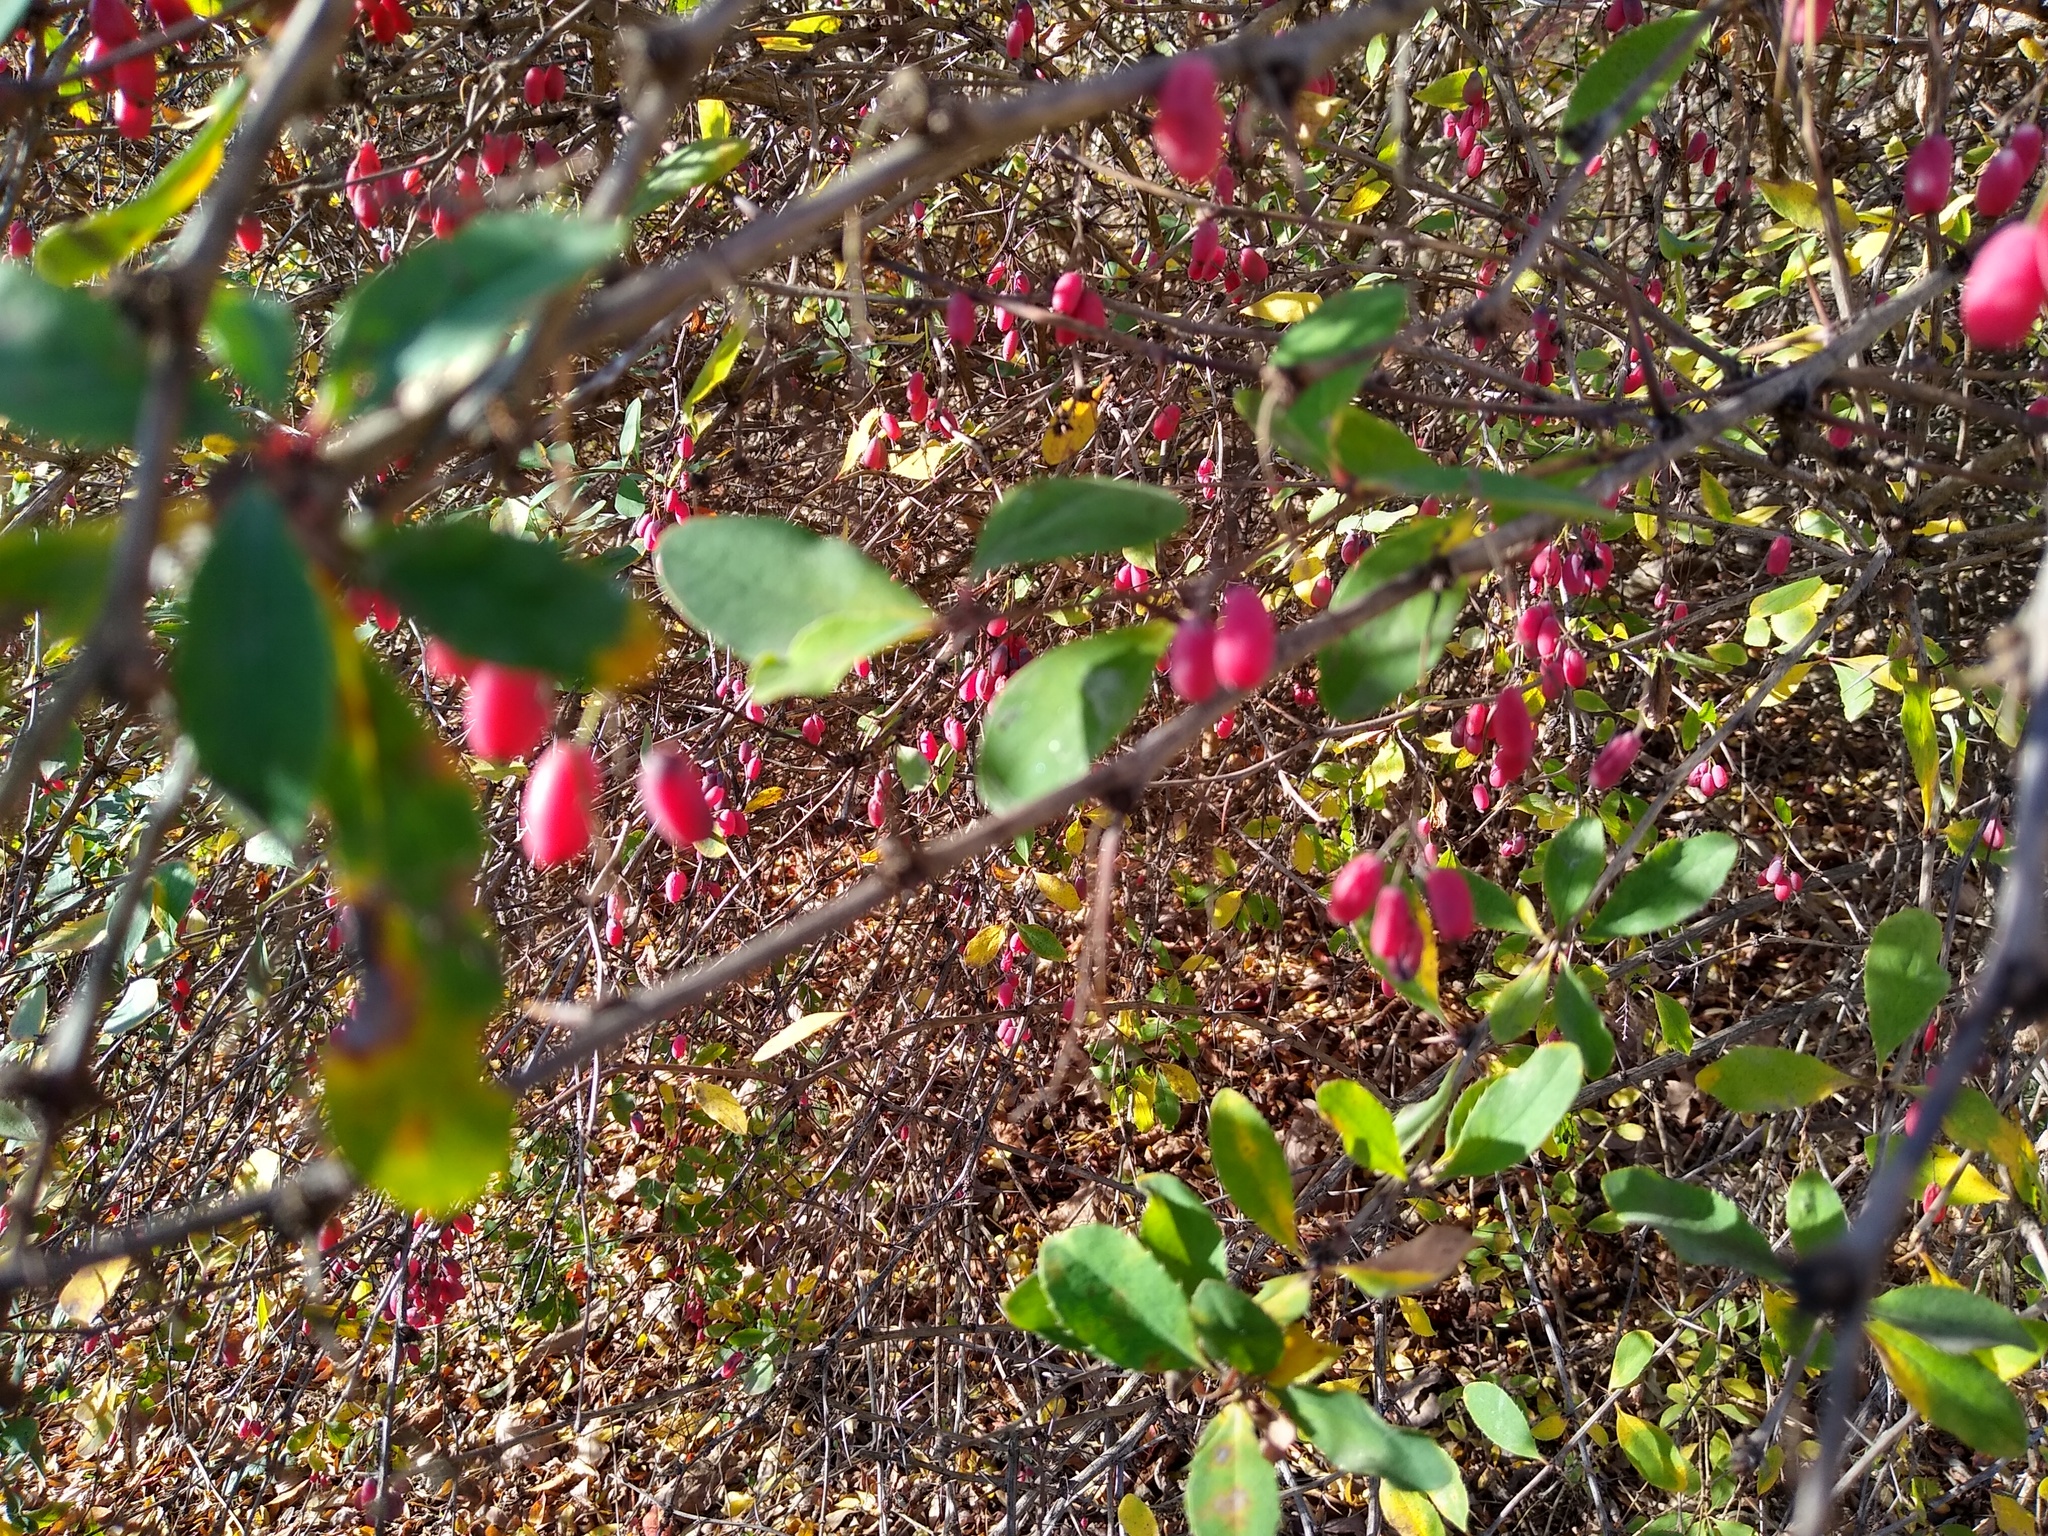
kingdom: Plantae
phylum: Tracheophyta
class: Magnoliopsida
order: Ranunculales
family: Berberidaceae
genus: Berberis
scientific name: Berberis vulgaris
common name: Barberry
